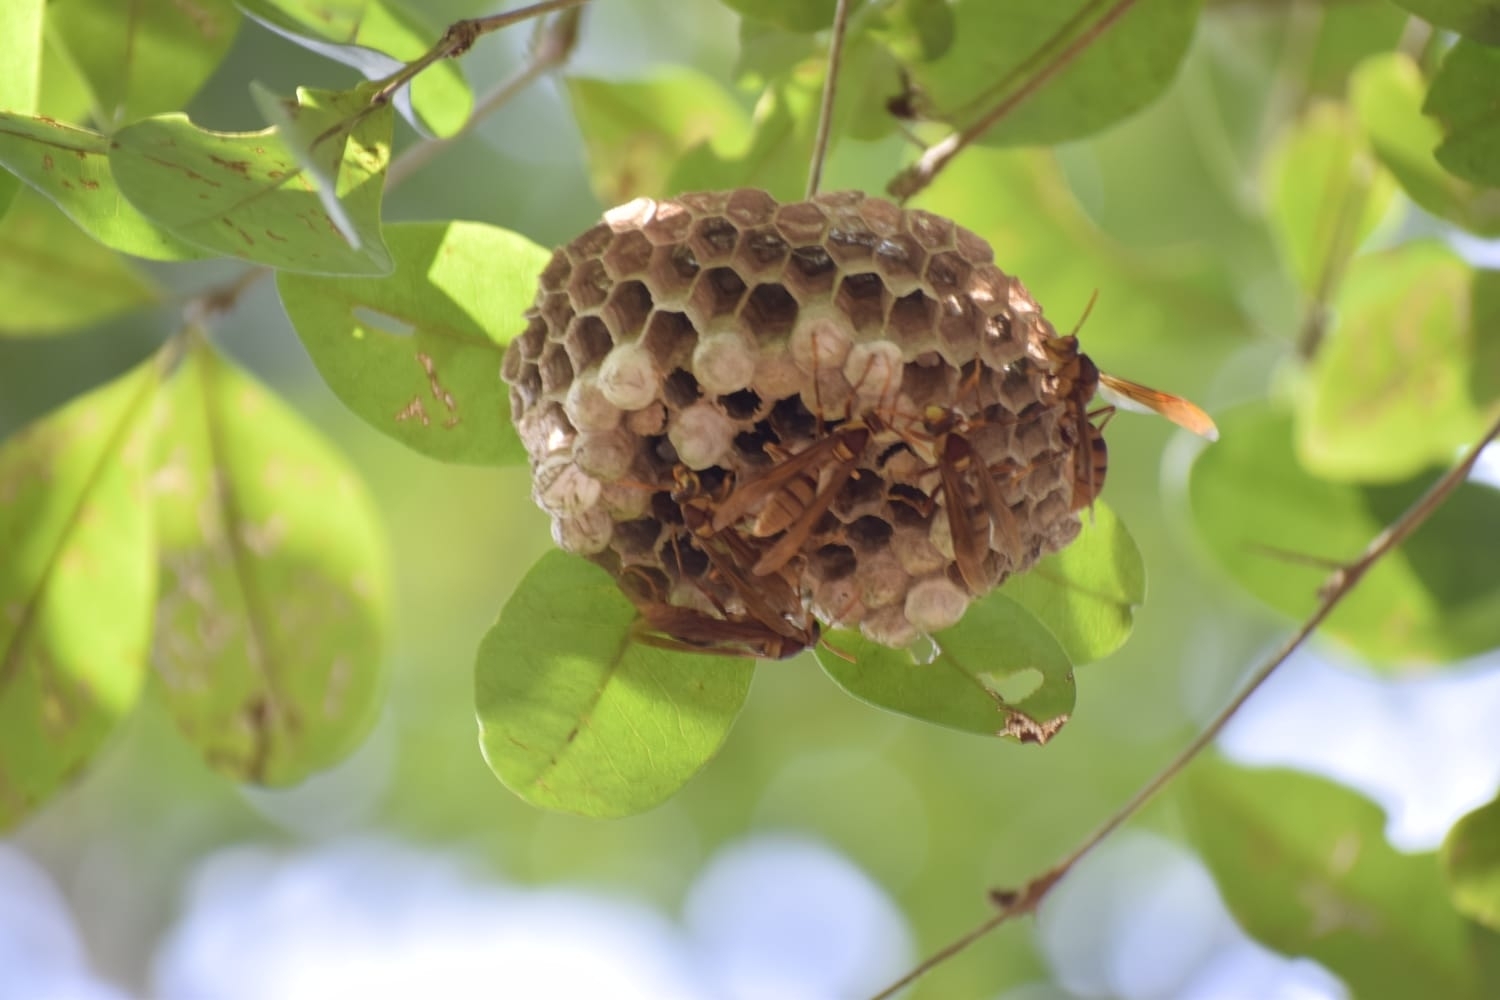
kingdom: Animalia
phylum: Arthropoda
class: Insecta
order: Hymenoptera
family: Eumenidae
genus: Polistes
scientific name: Polistes carnifex
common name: Paper wasp
